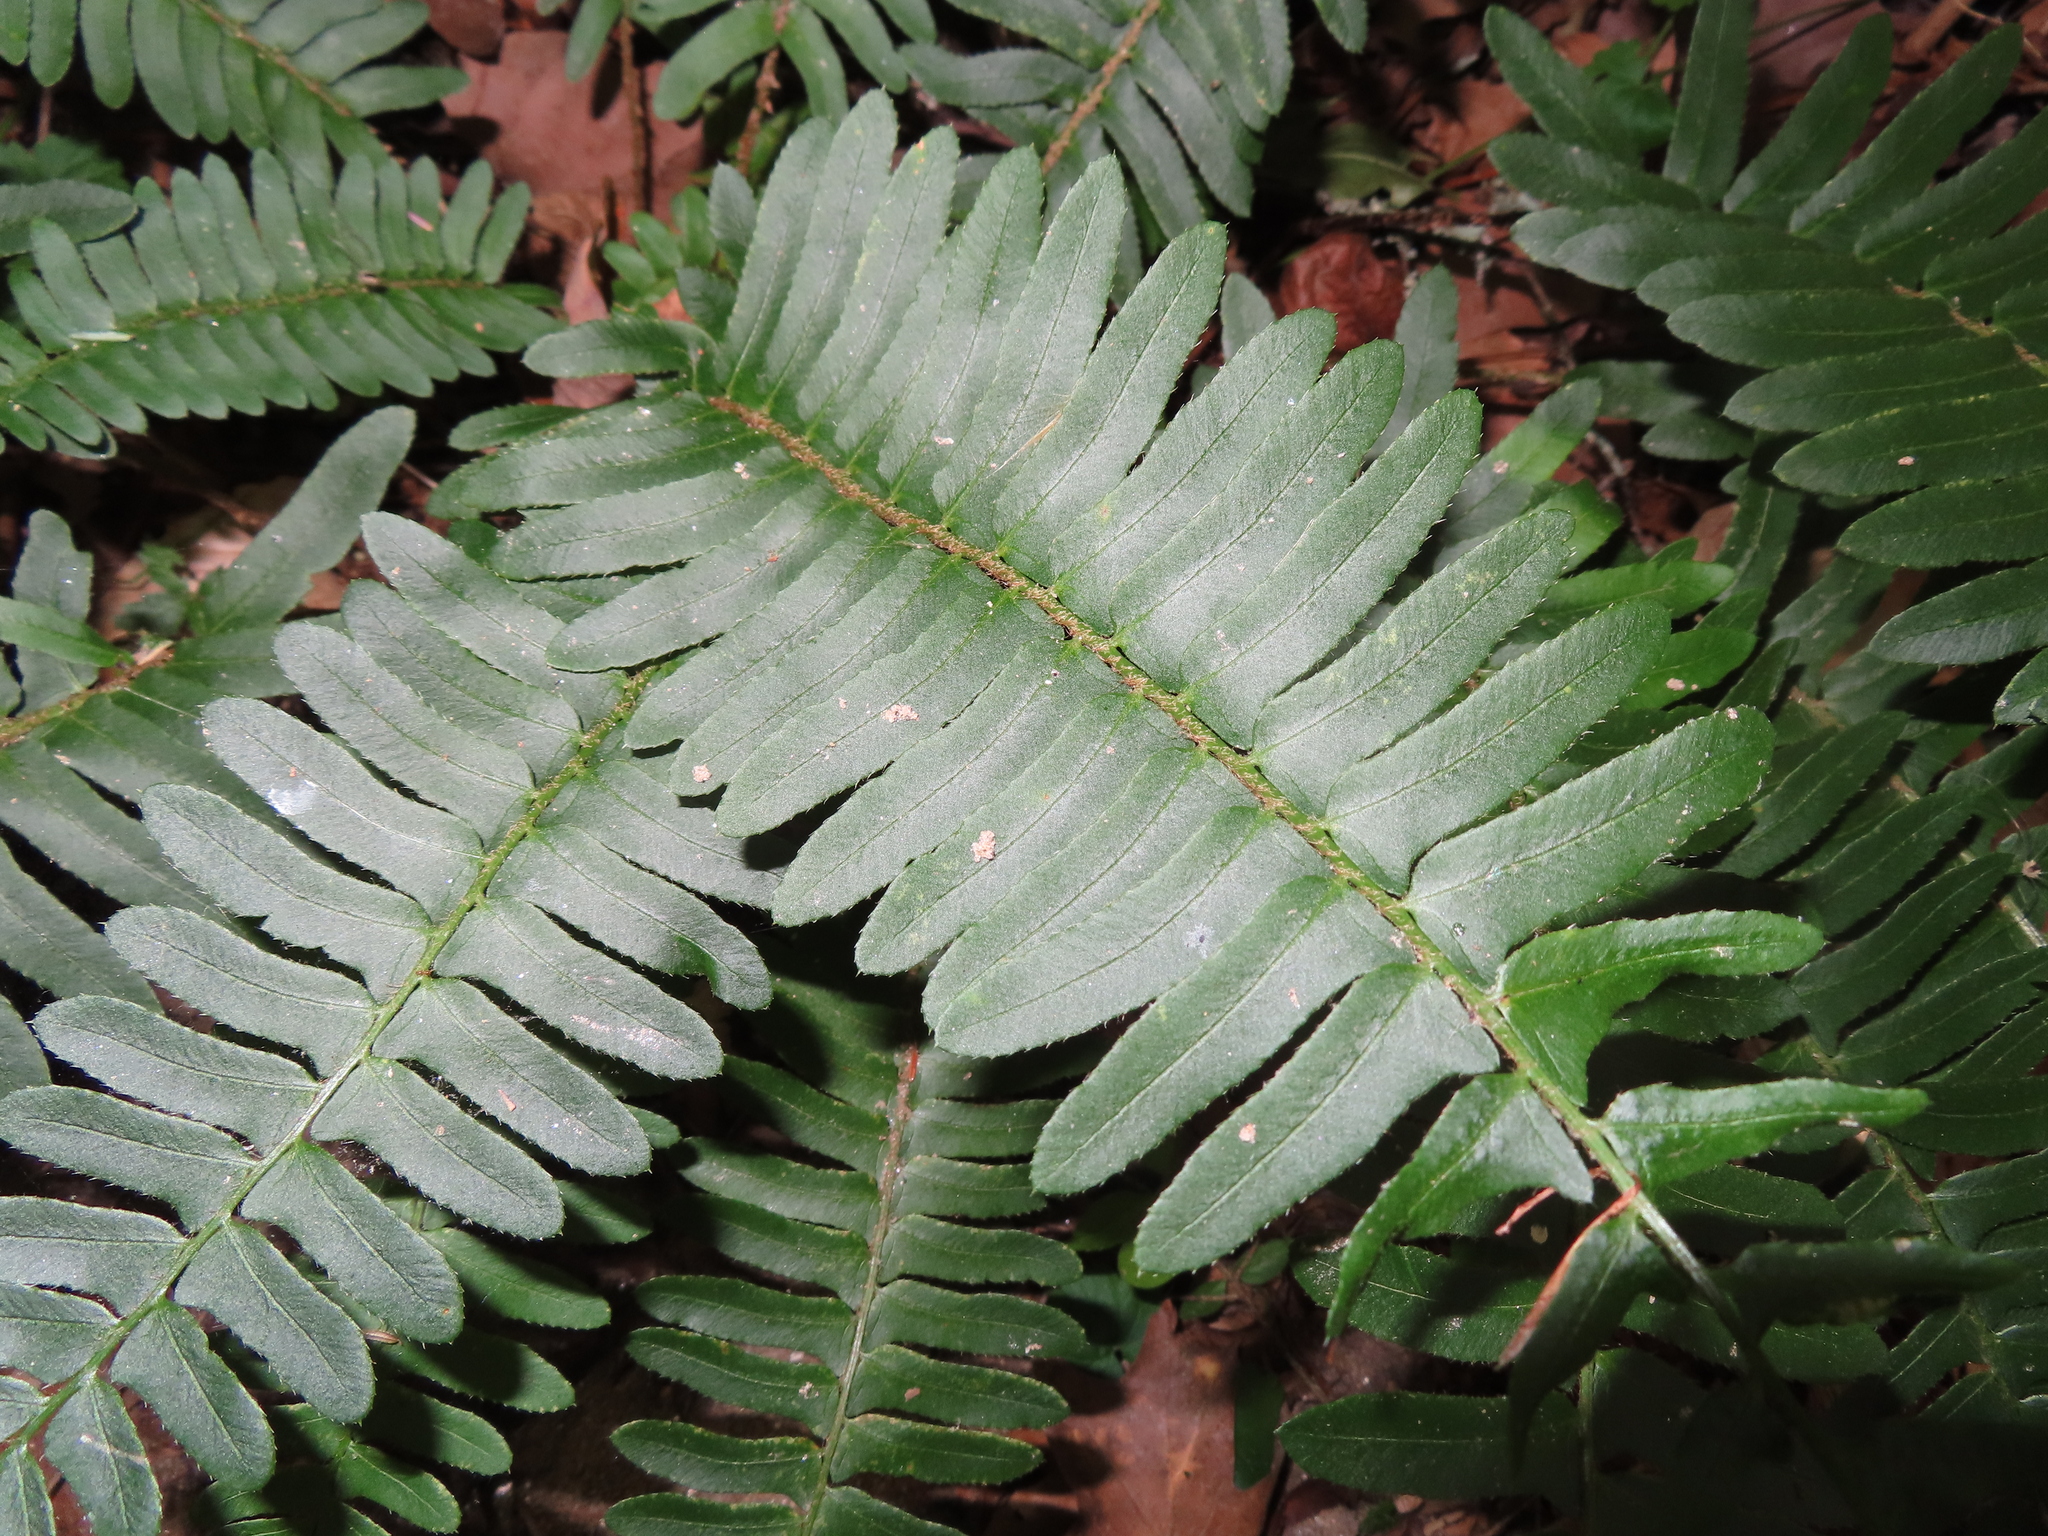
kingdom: Plantae
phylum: Tracheophyta
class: Polypodiopsida
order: Polypodiales
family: Dryopteridaceae
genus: Polystichum
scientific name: Polystichum acrostichoides
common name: Christmas fern
